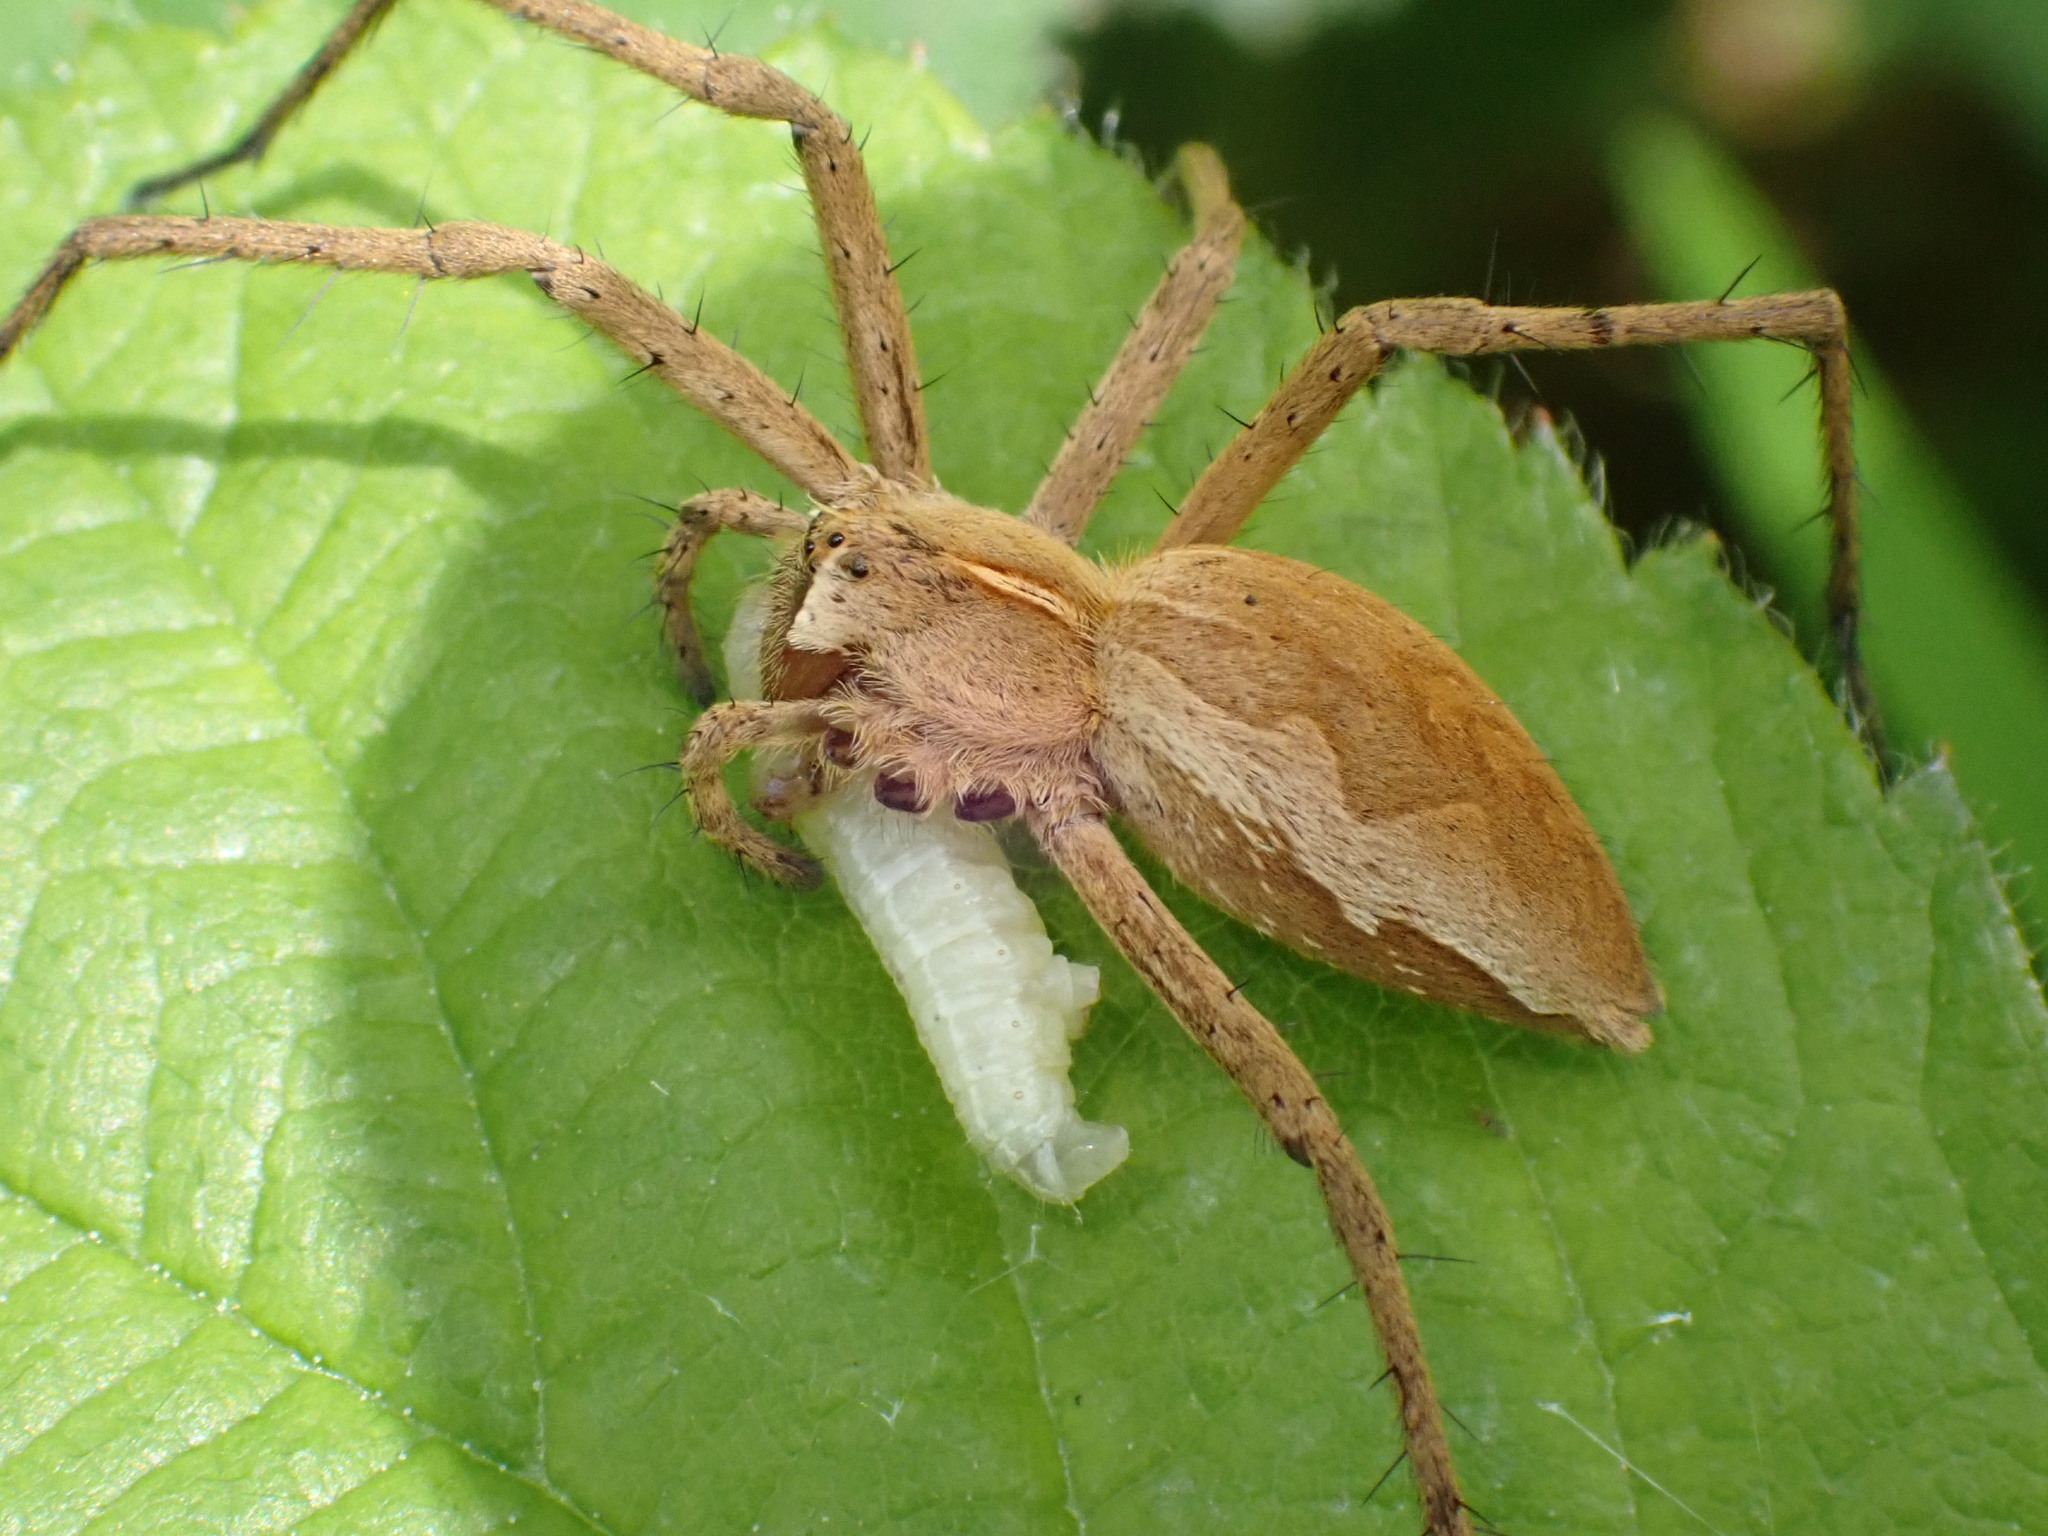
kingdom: Animalia
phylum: Arthropoda
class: Arachnida
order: Araneae
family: Pisauridae
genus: Pisaura
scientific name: Pisaura mirabilis
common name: Tent spider
